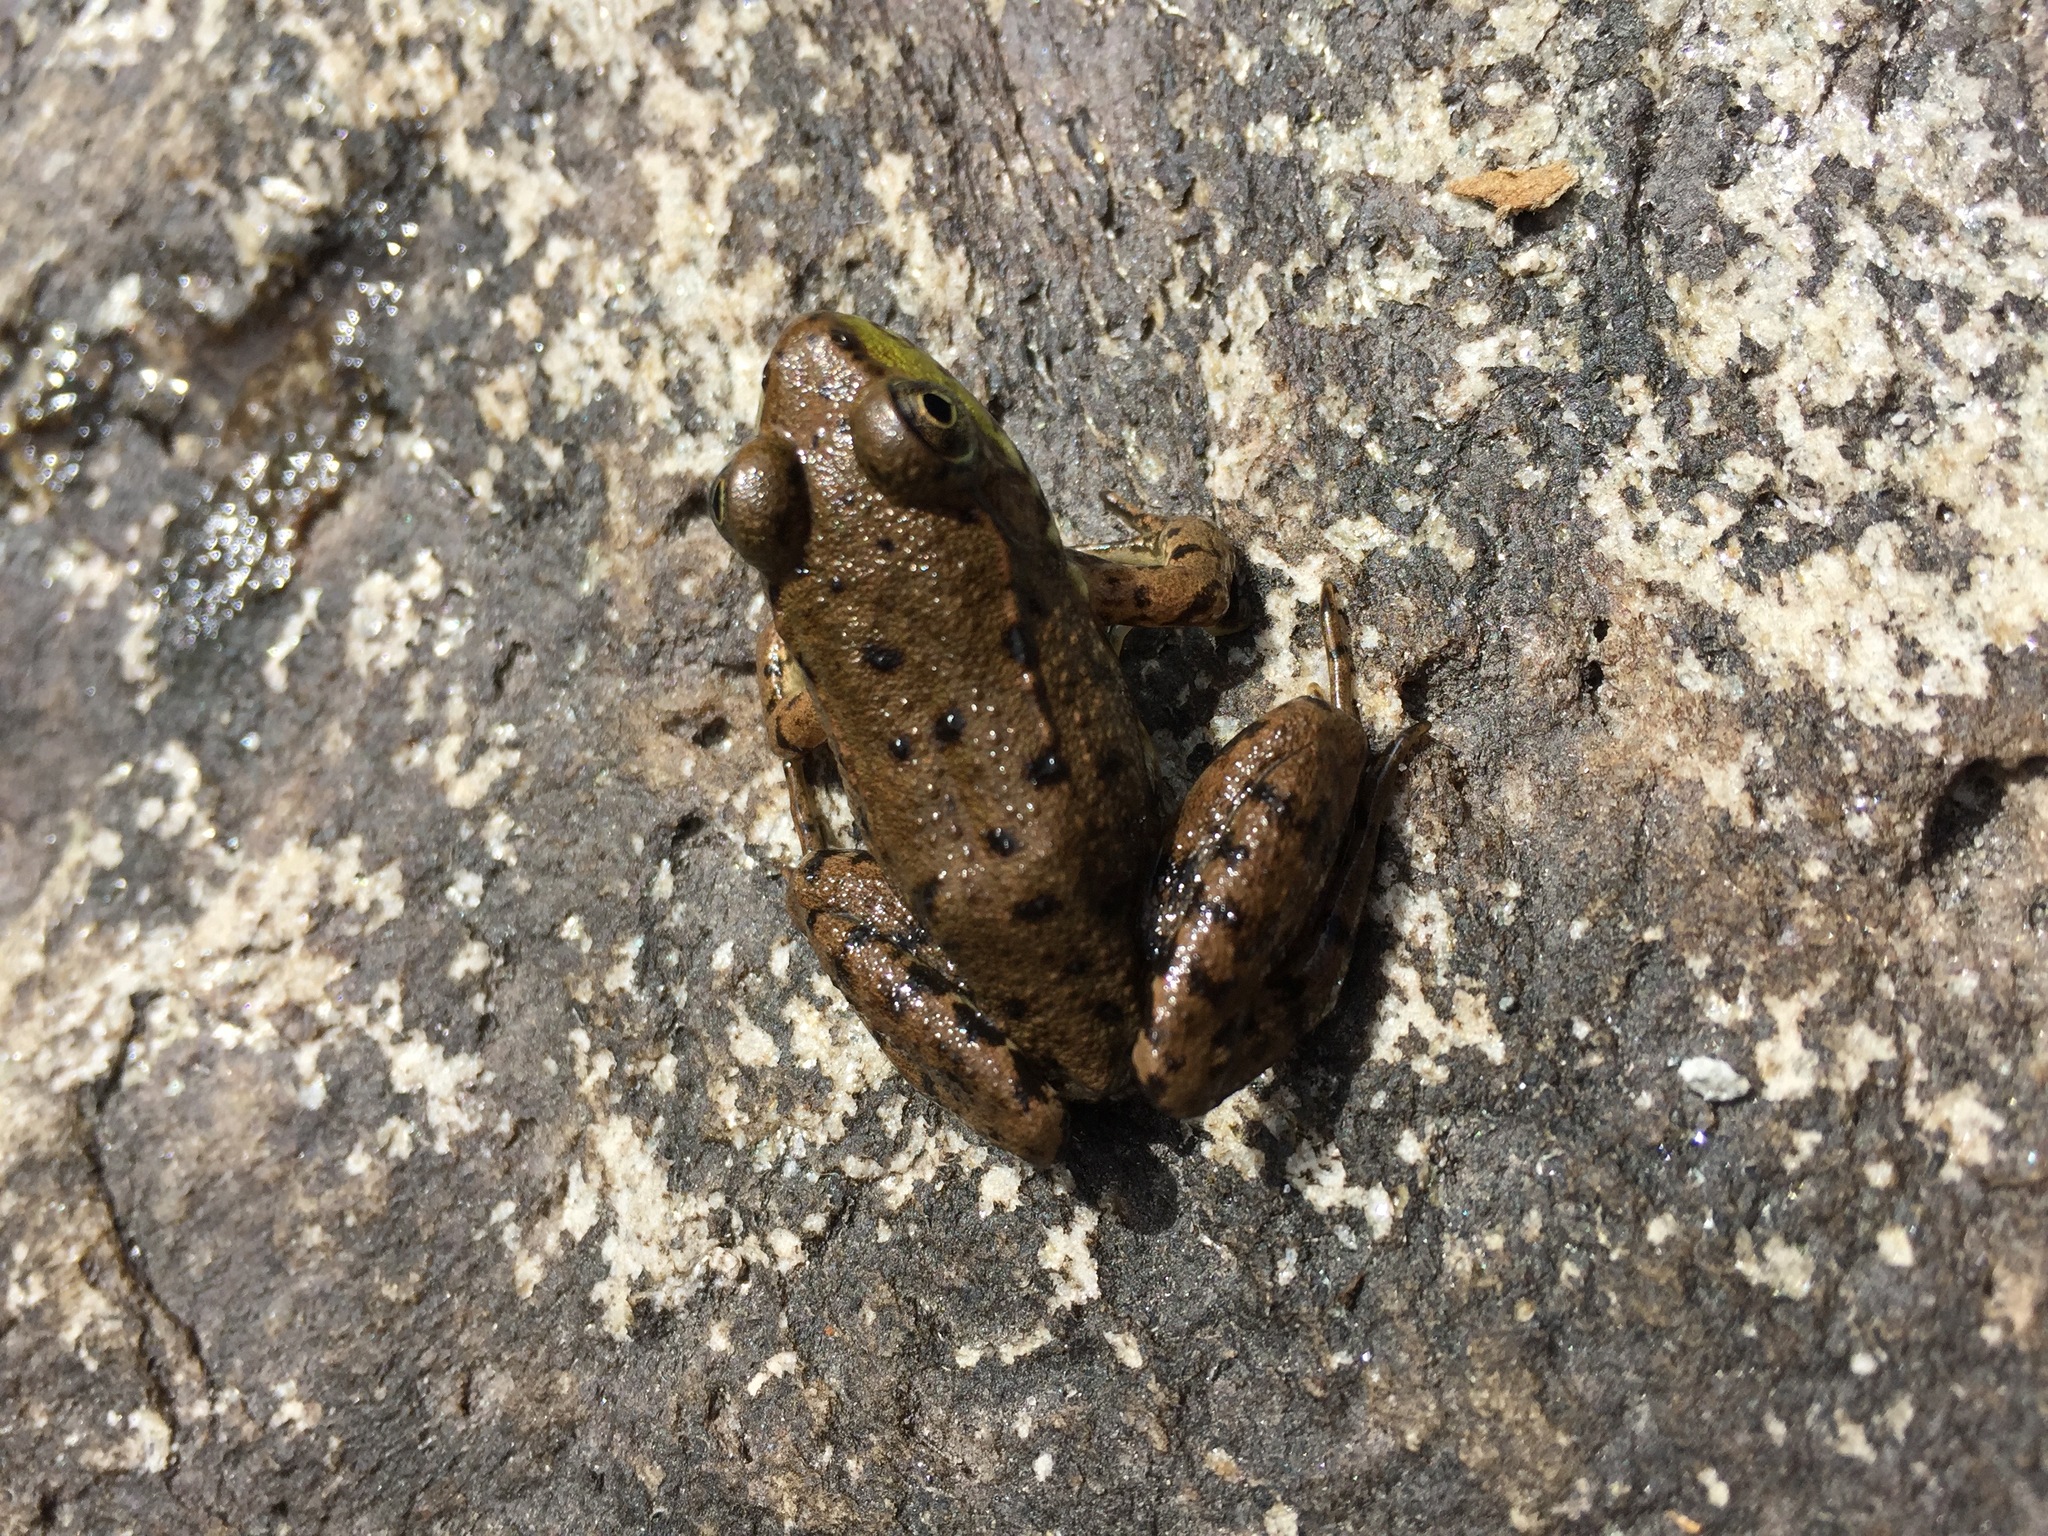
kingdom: Animalia
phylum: Chordata
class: Amphibia
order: Anura
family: Ranidae
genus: Lithobates
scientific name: Lithobates clamitans
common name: Green frog
